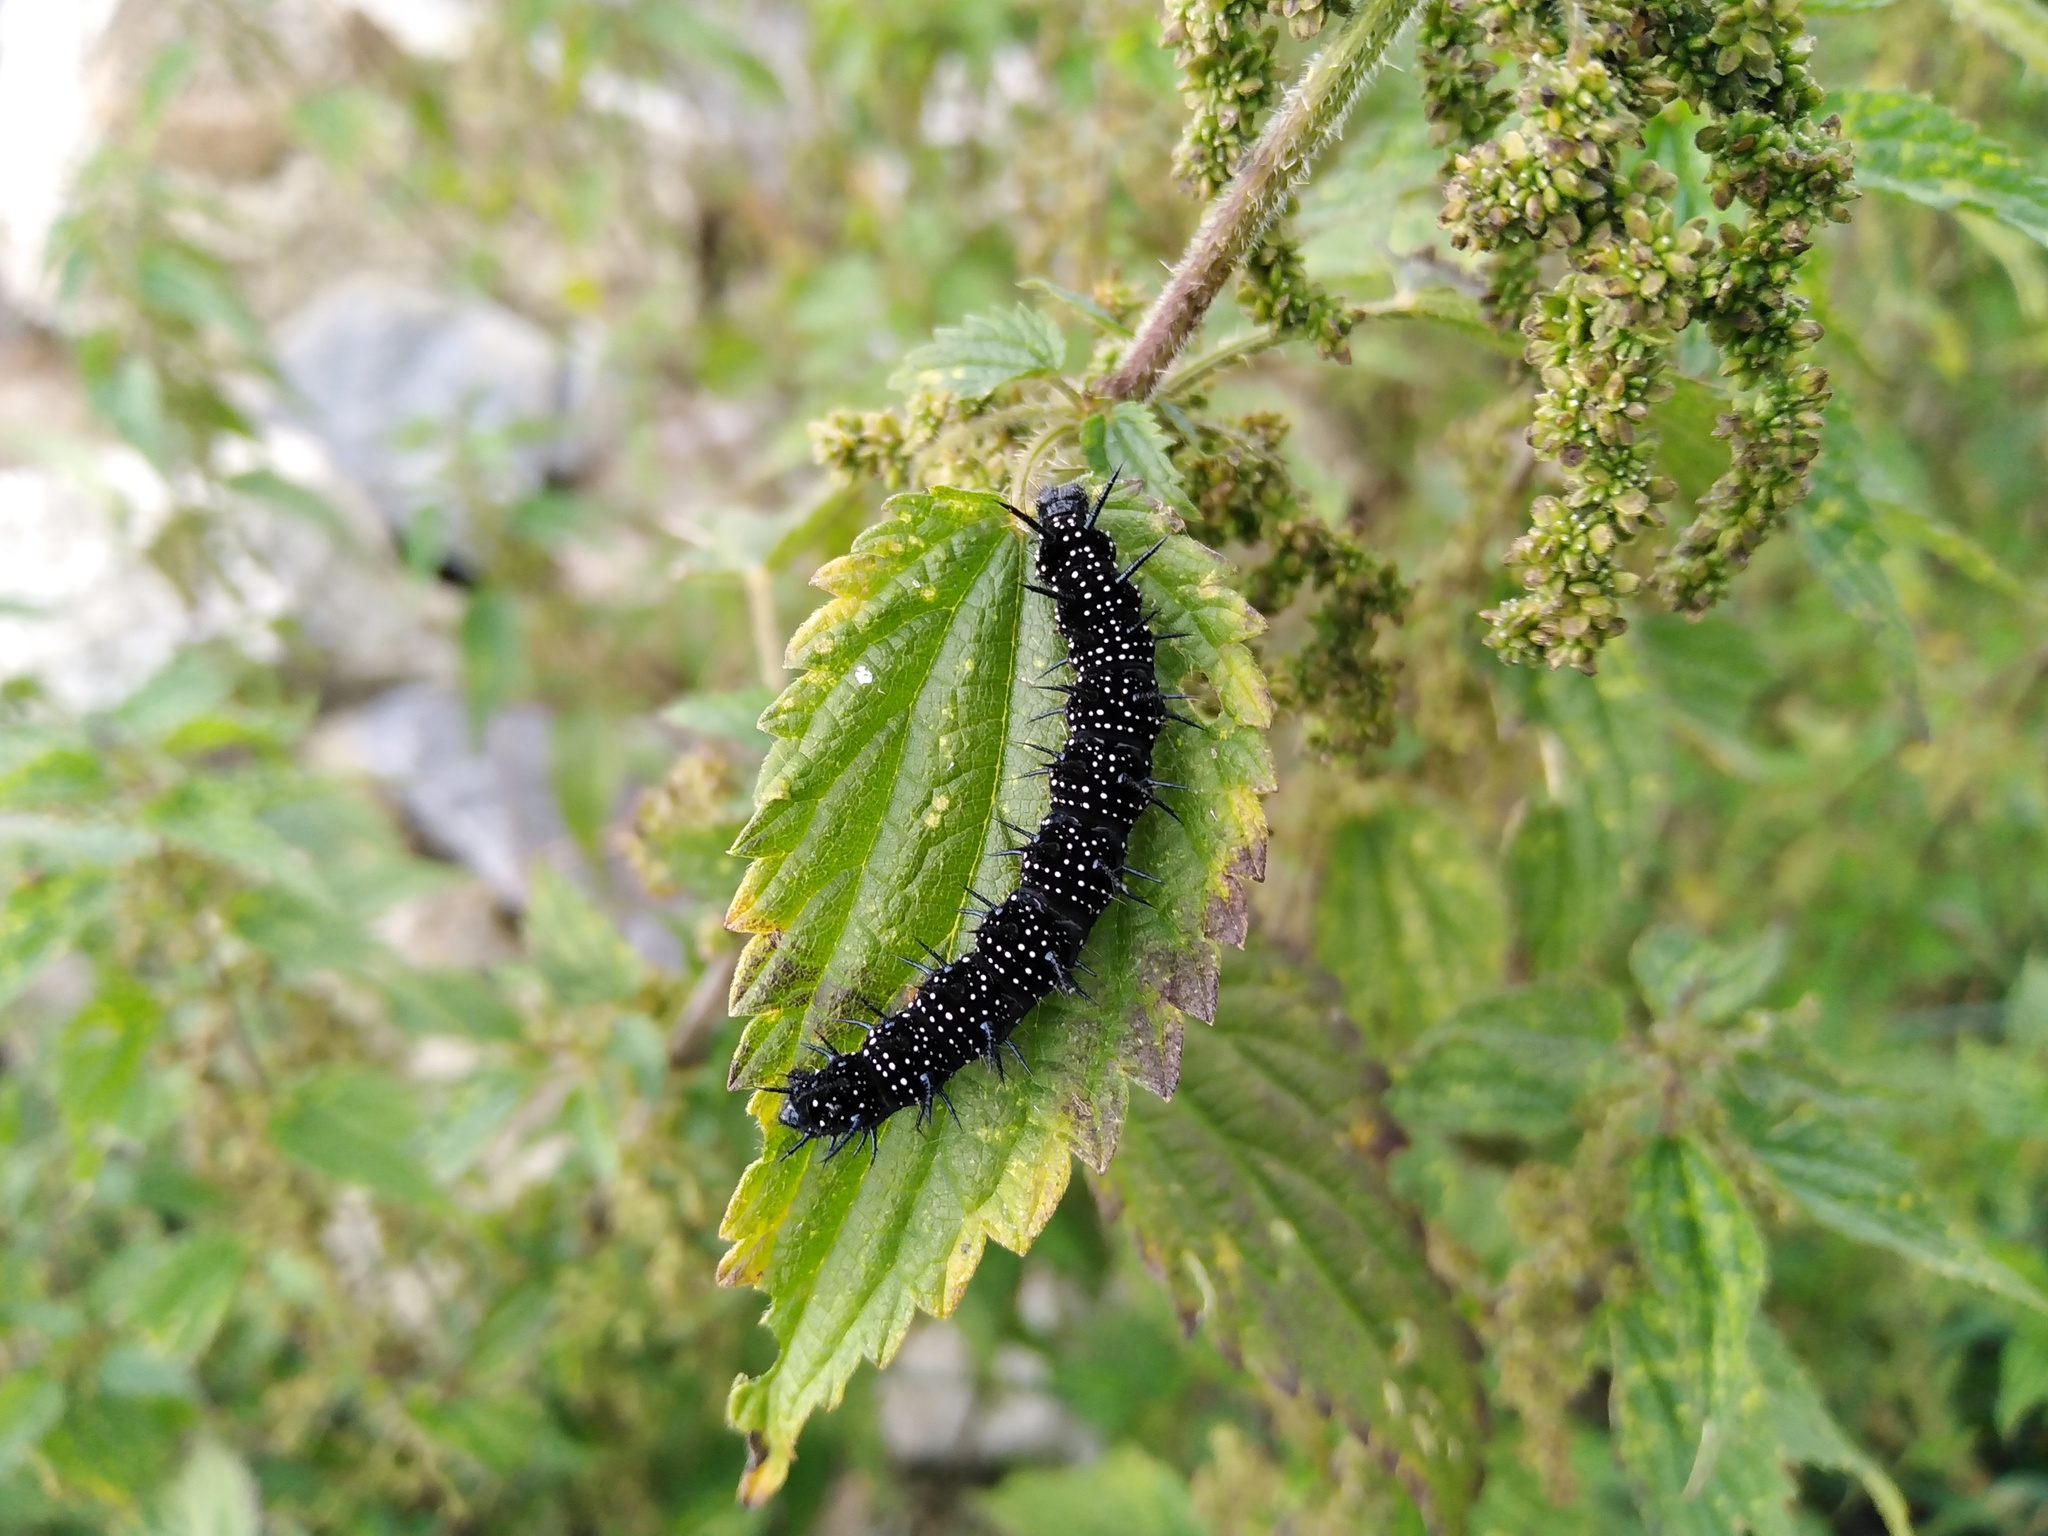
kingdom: Animalia
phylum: Arthropoda
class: Insecta
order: Lepidoptera
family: Nymphalidae
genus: Aglais
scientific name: Aglais io
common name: Peacock
